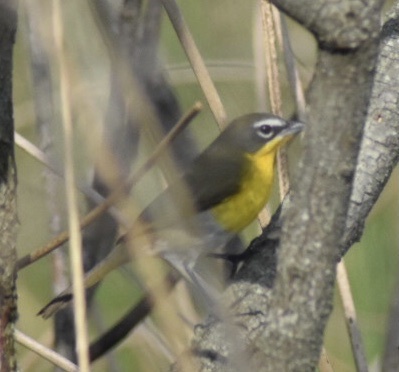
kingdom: Animalia
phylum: Chordata
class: Aves
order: Passeriformes
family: Parulidae
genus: Icteria
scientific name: Icteria virens
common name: Yellow-breasted chat
